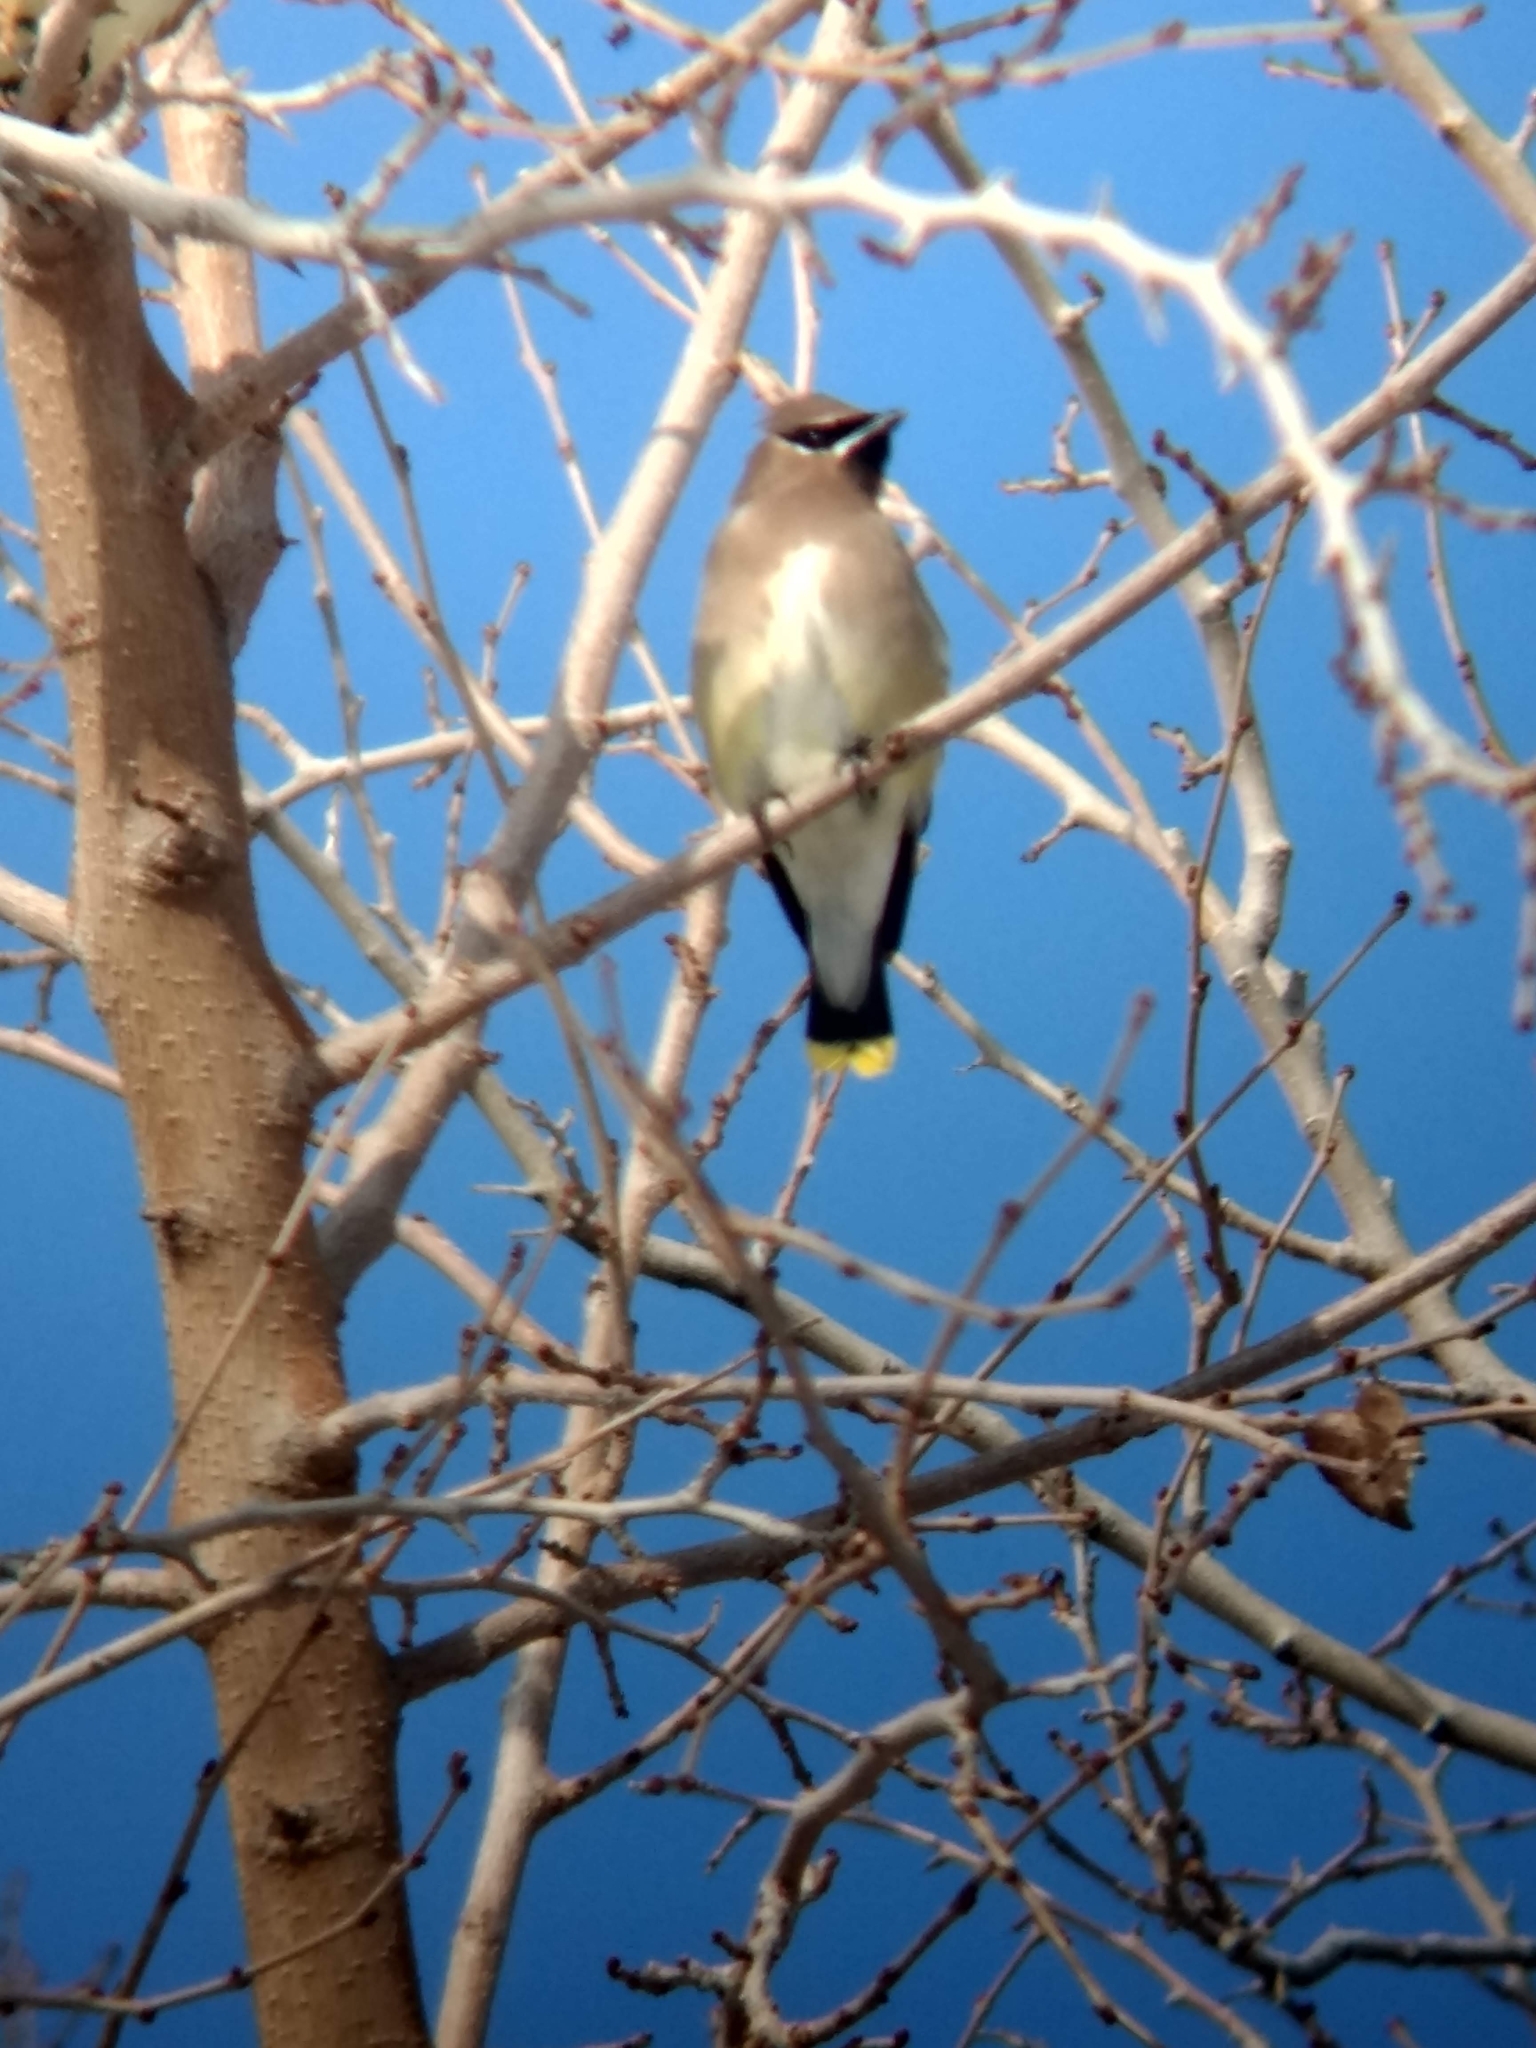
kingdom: Animalia
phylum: Chordata
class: Aves
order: Passeriformes
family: Bombycillidae
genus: Bombycilla
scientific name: Bombycilla cedrorum
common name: Cedar waxwing
